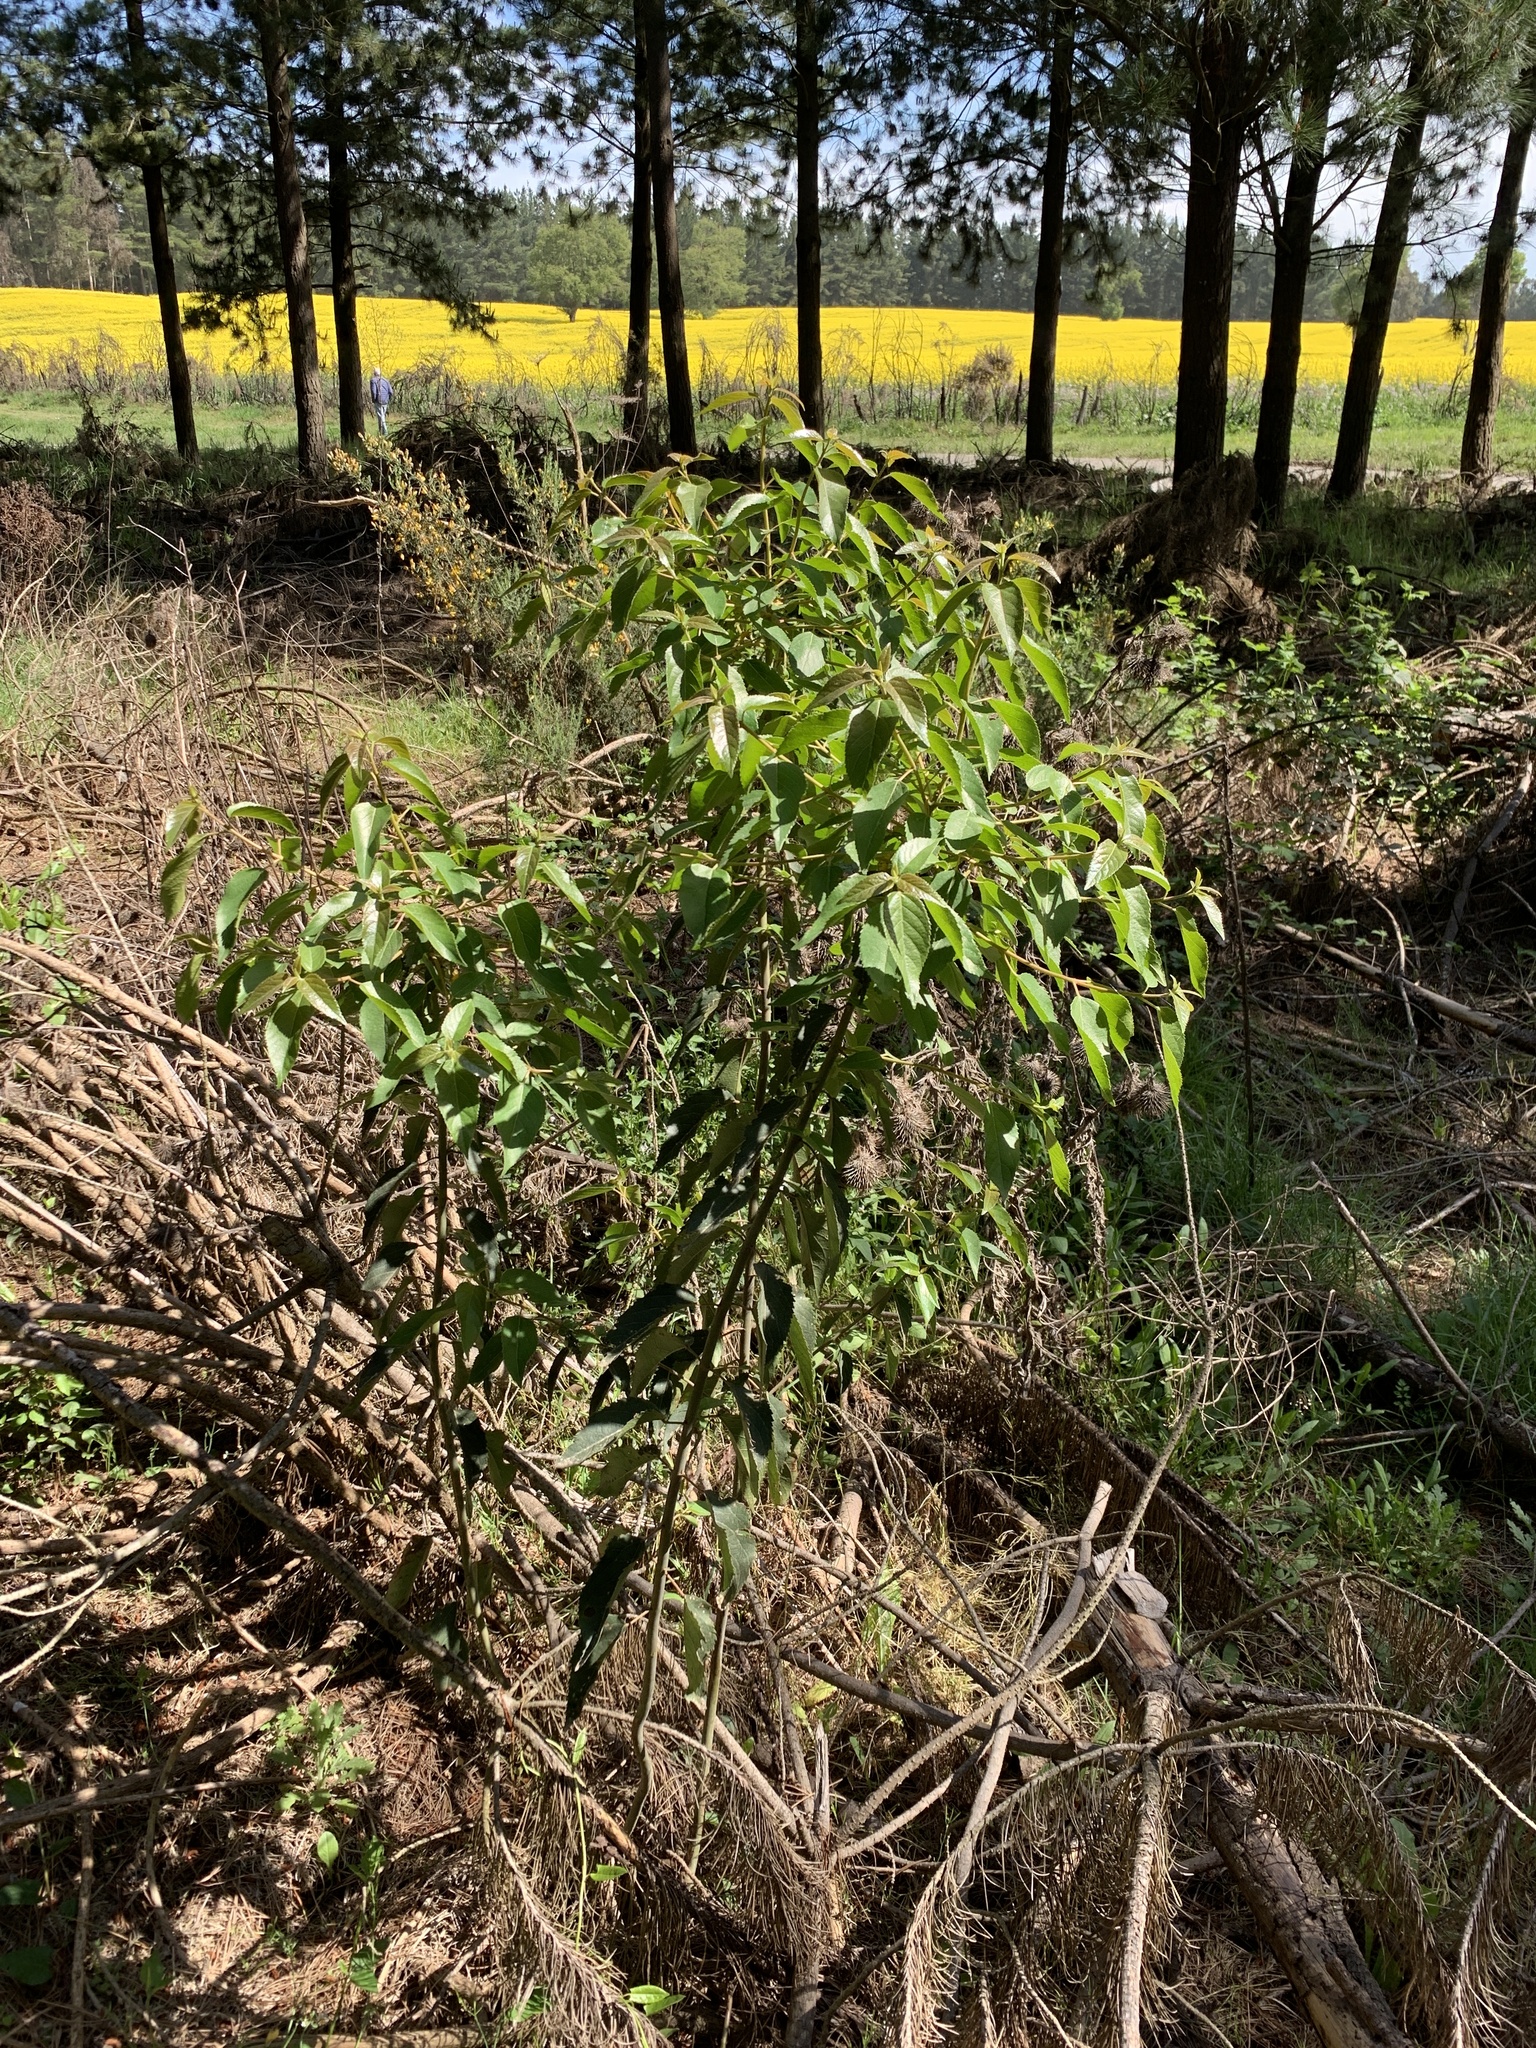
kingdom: Plantae
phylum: Tracheophyta
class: Magnoliopsida
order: Oxalidales
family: Elaeocarpaceae
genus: Aristotelia
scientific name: Aristotelia chilensis
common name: Maquei
